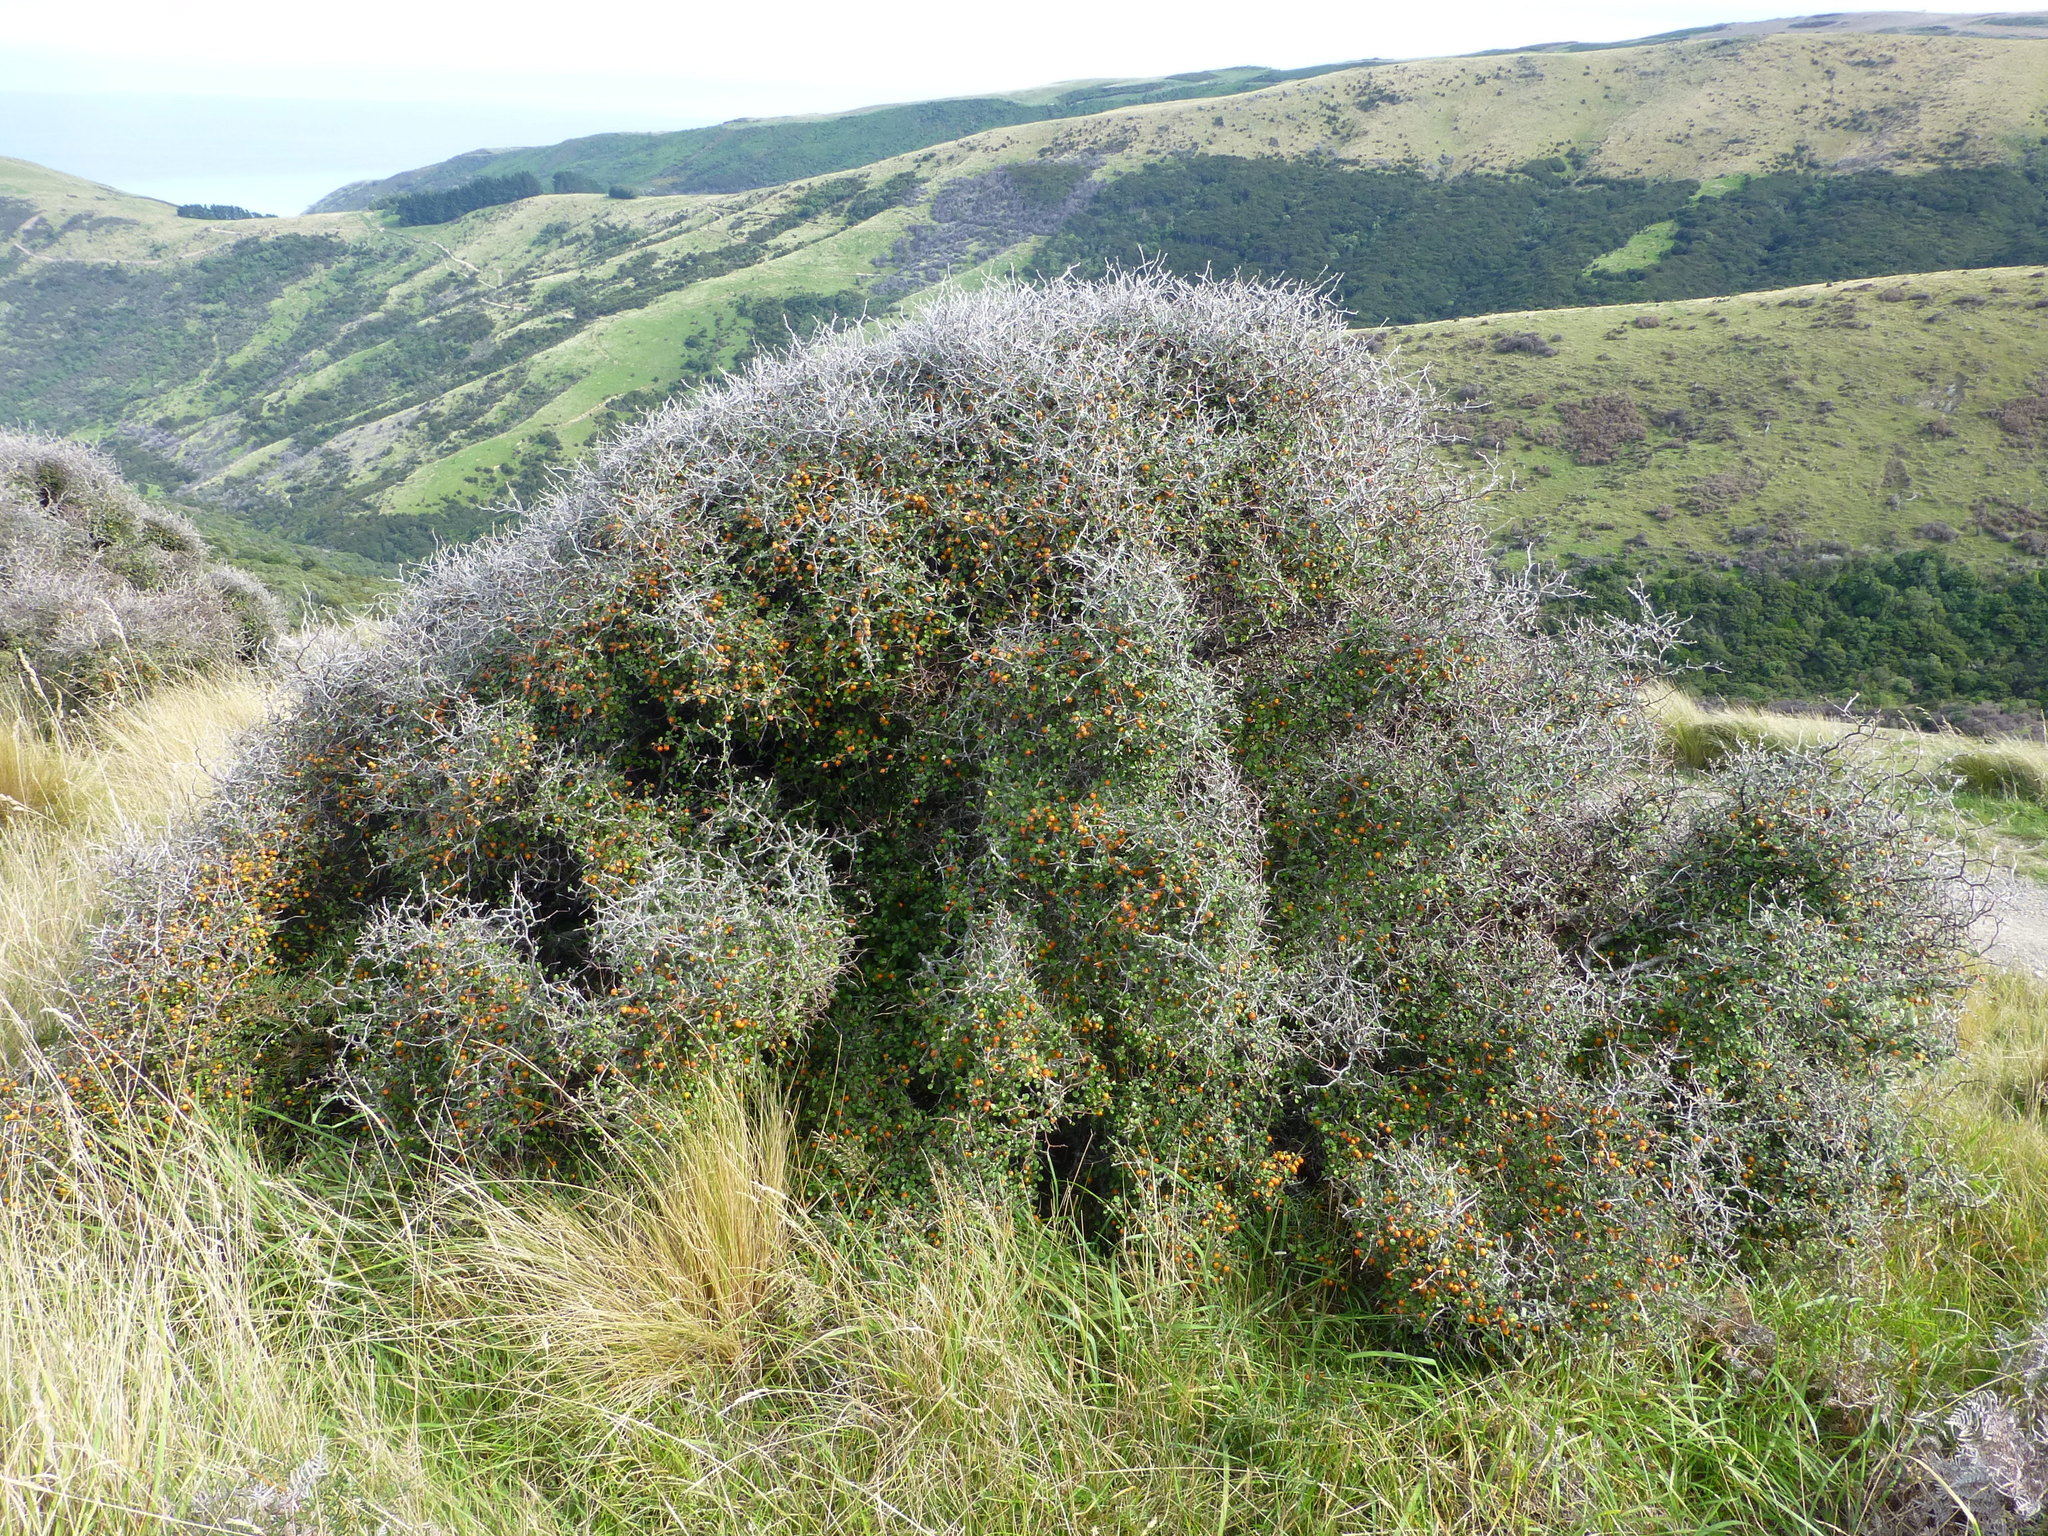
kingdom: Plantae
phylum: Tracheophyta
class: Magnoliopsida
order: Asterales
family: Argophyllaceae
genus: Corokia
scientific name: Corokia cotoneaster
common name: Wire nettingbush
